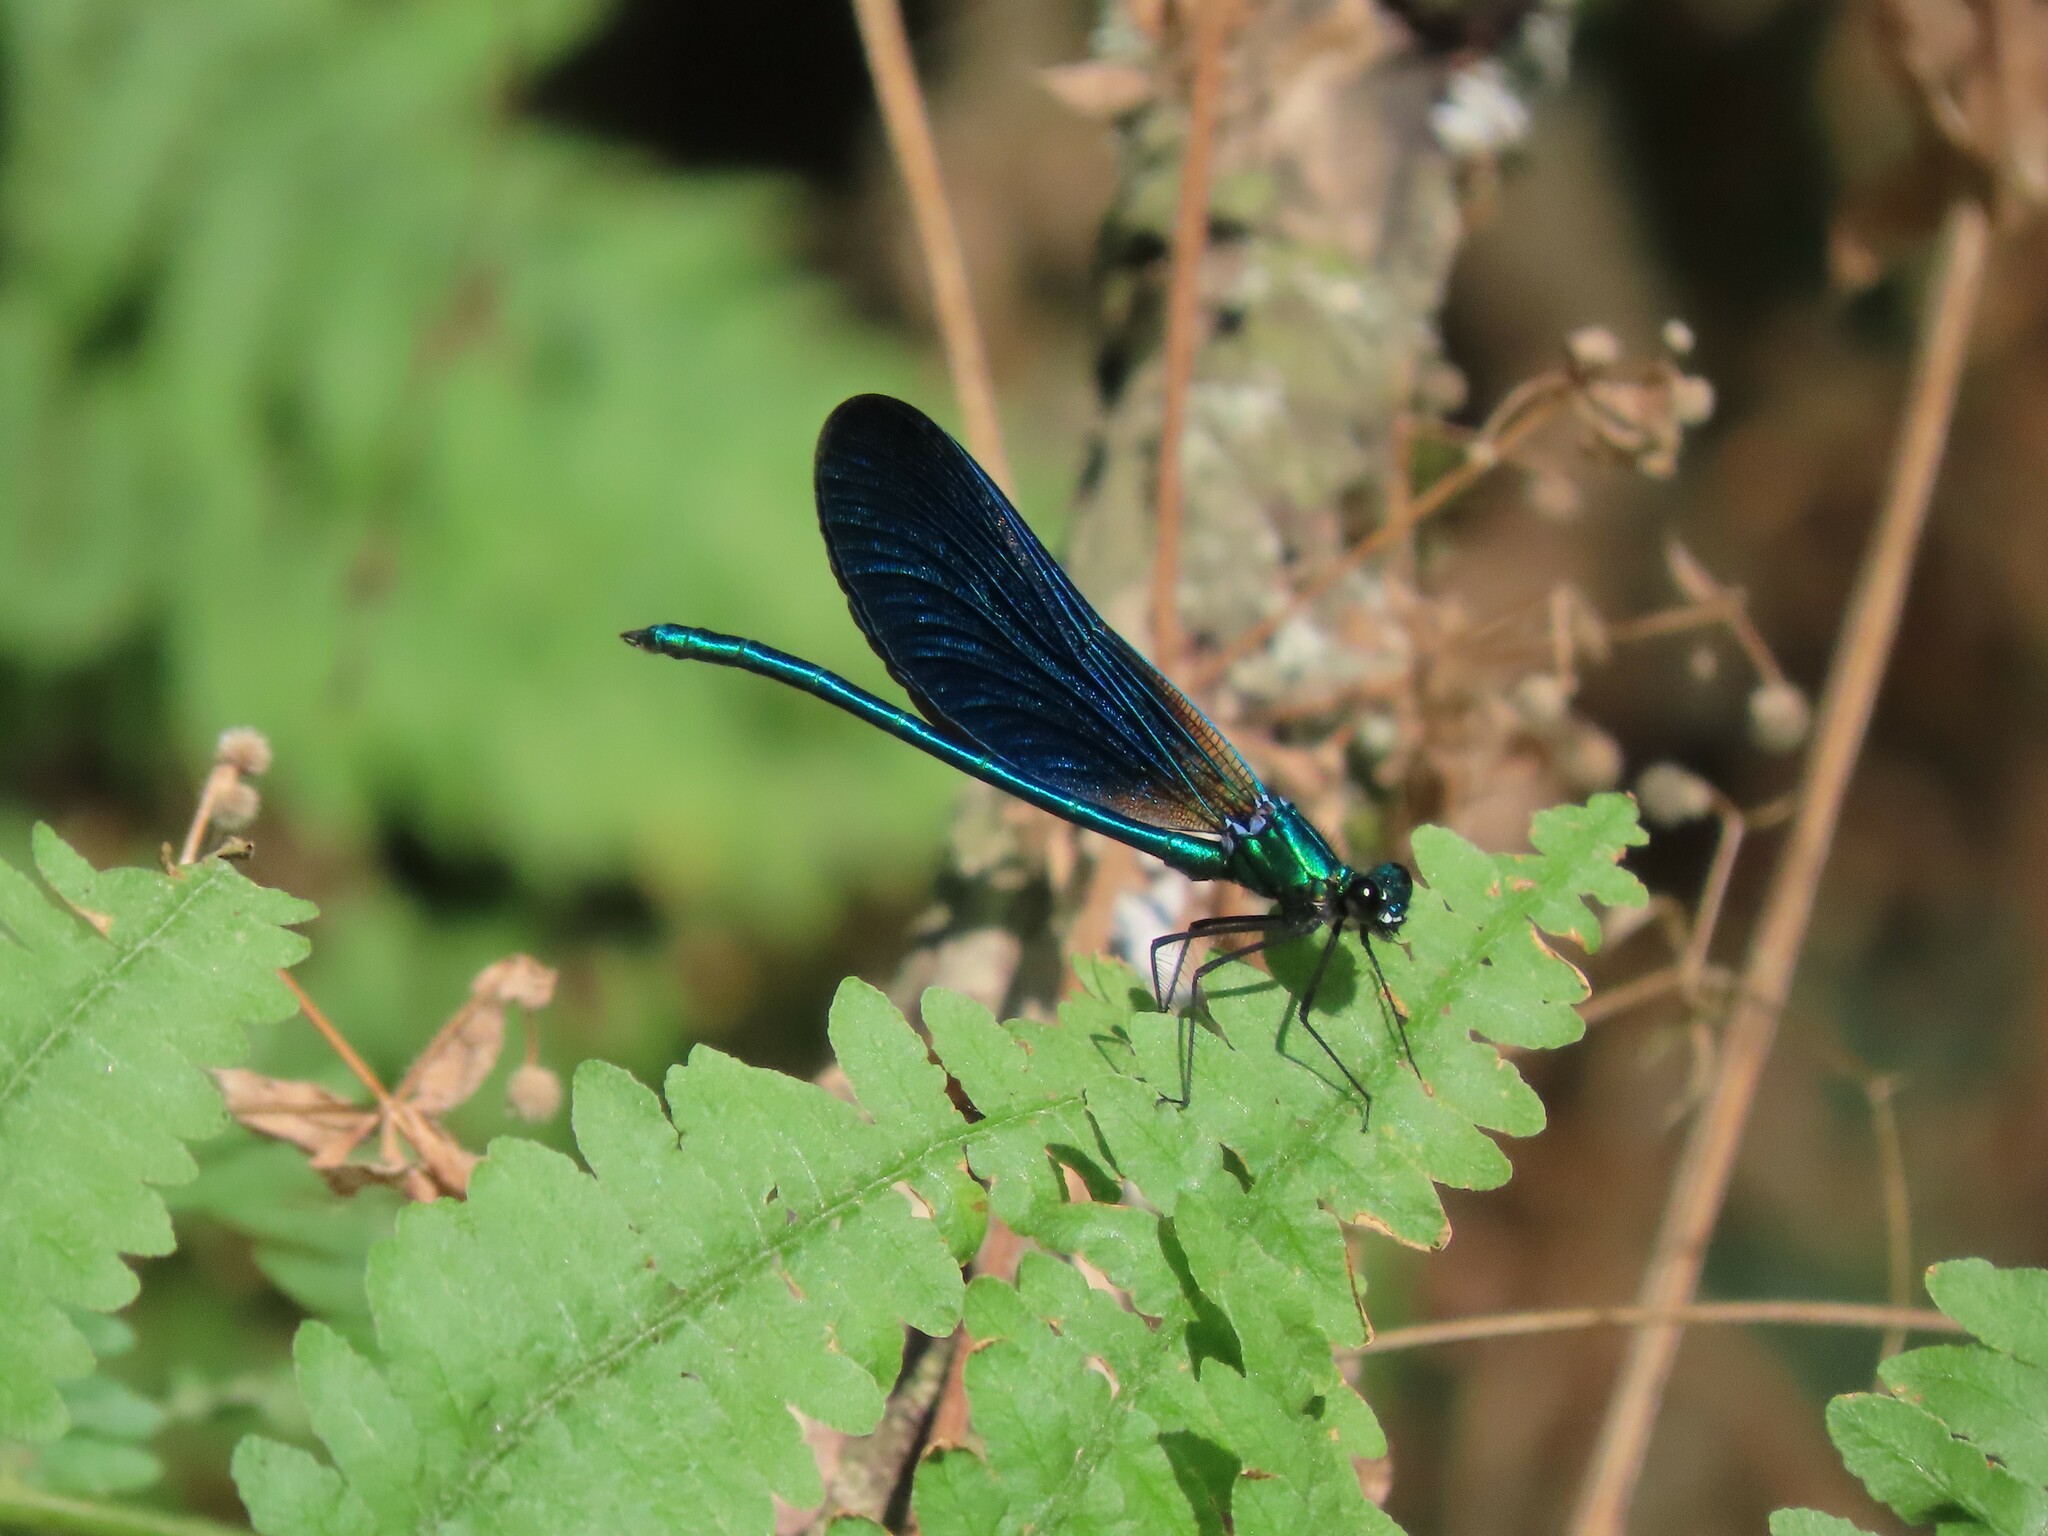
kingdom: Animalia
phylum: Arthropoda
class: Insecta
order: Odonata
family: Calopterygidae
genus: Calopteryx
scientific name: Calopteryx virgo
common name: Beautiful demoiselle
